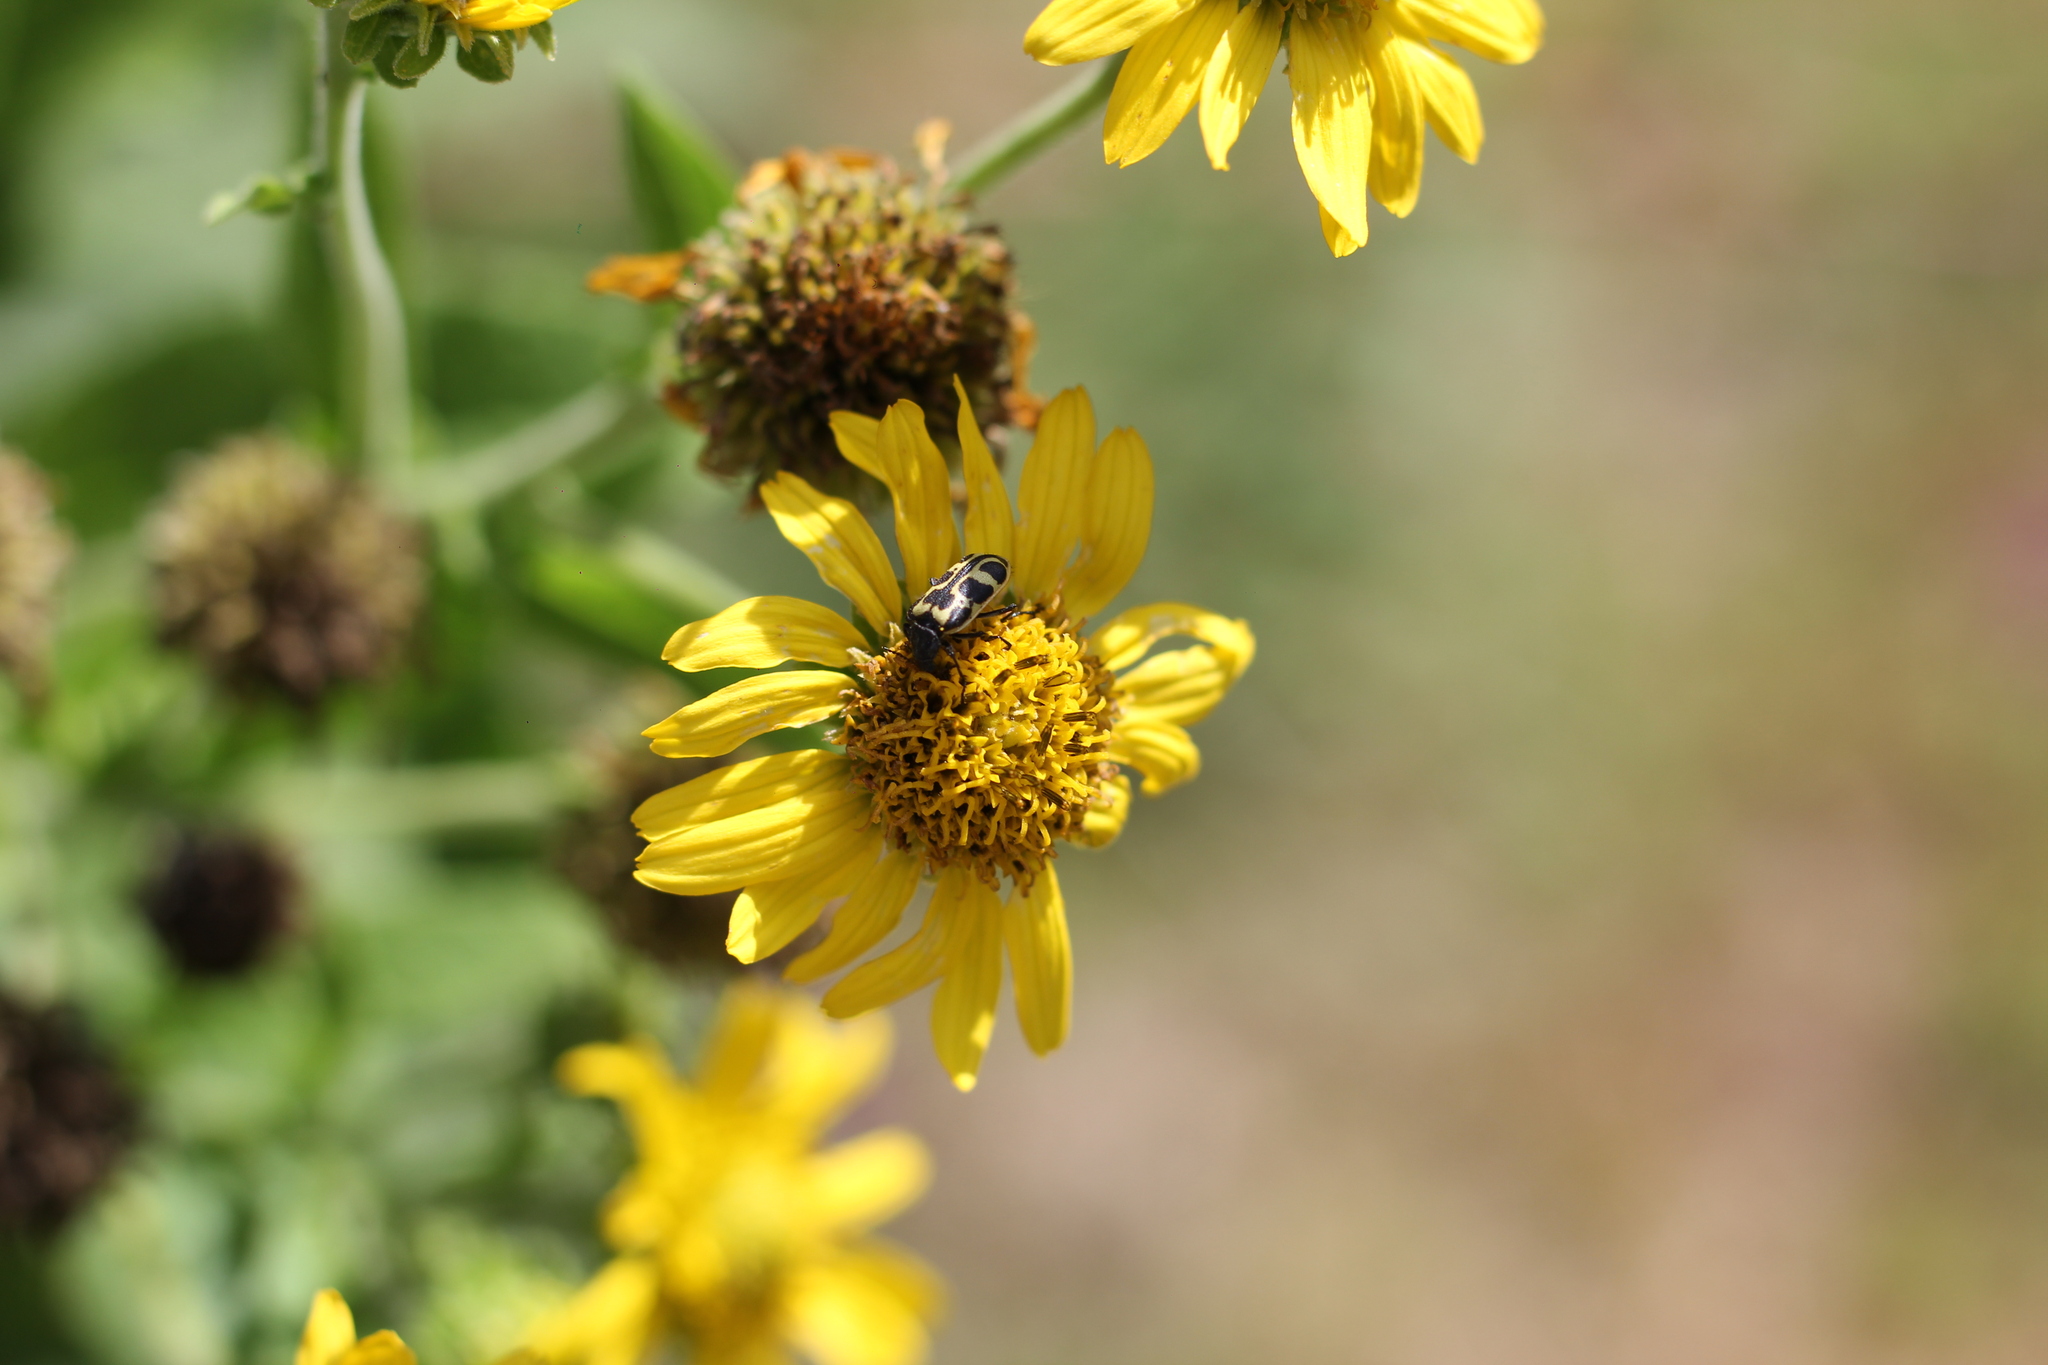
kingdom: Animalia
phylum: Arthropoda
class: Insecta
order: Coleoptera
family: Melyridae
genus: Astylus
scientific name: Astylus atromaculatus
